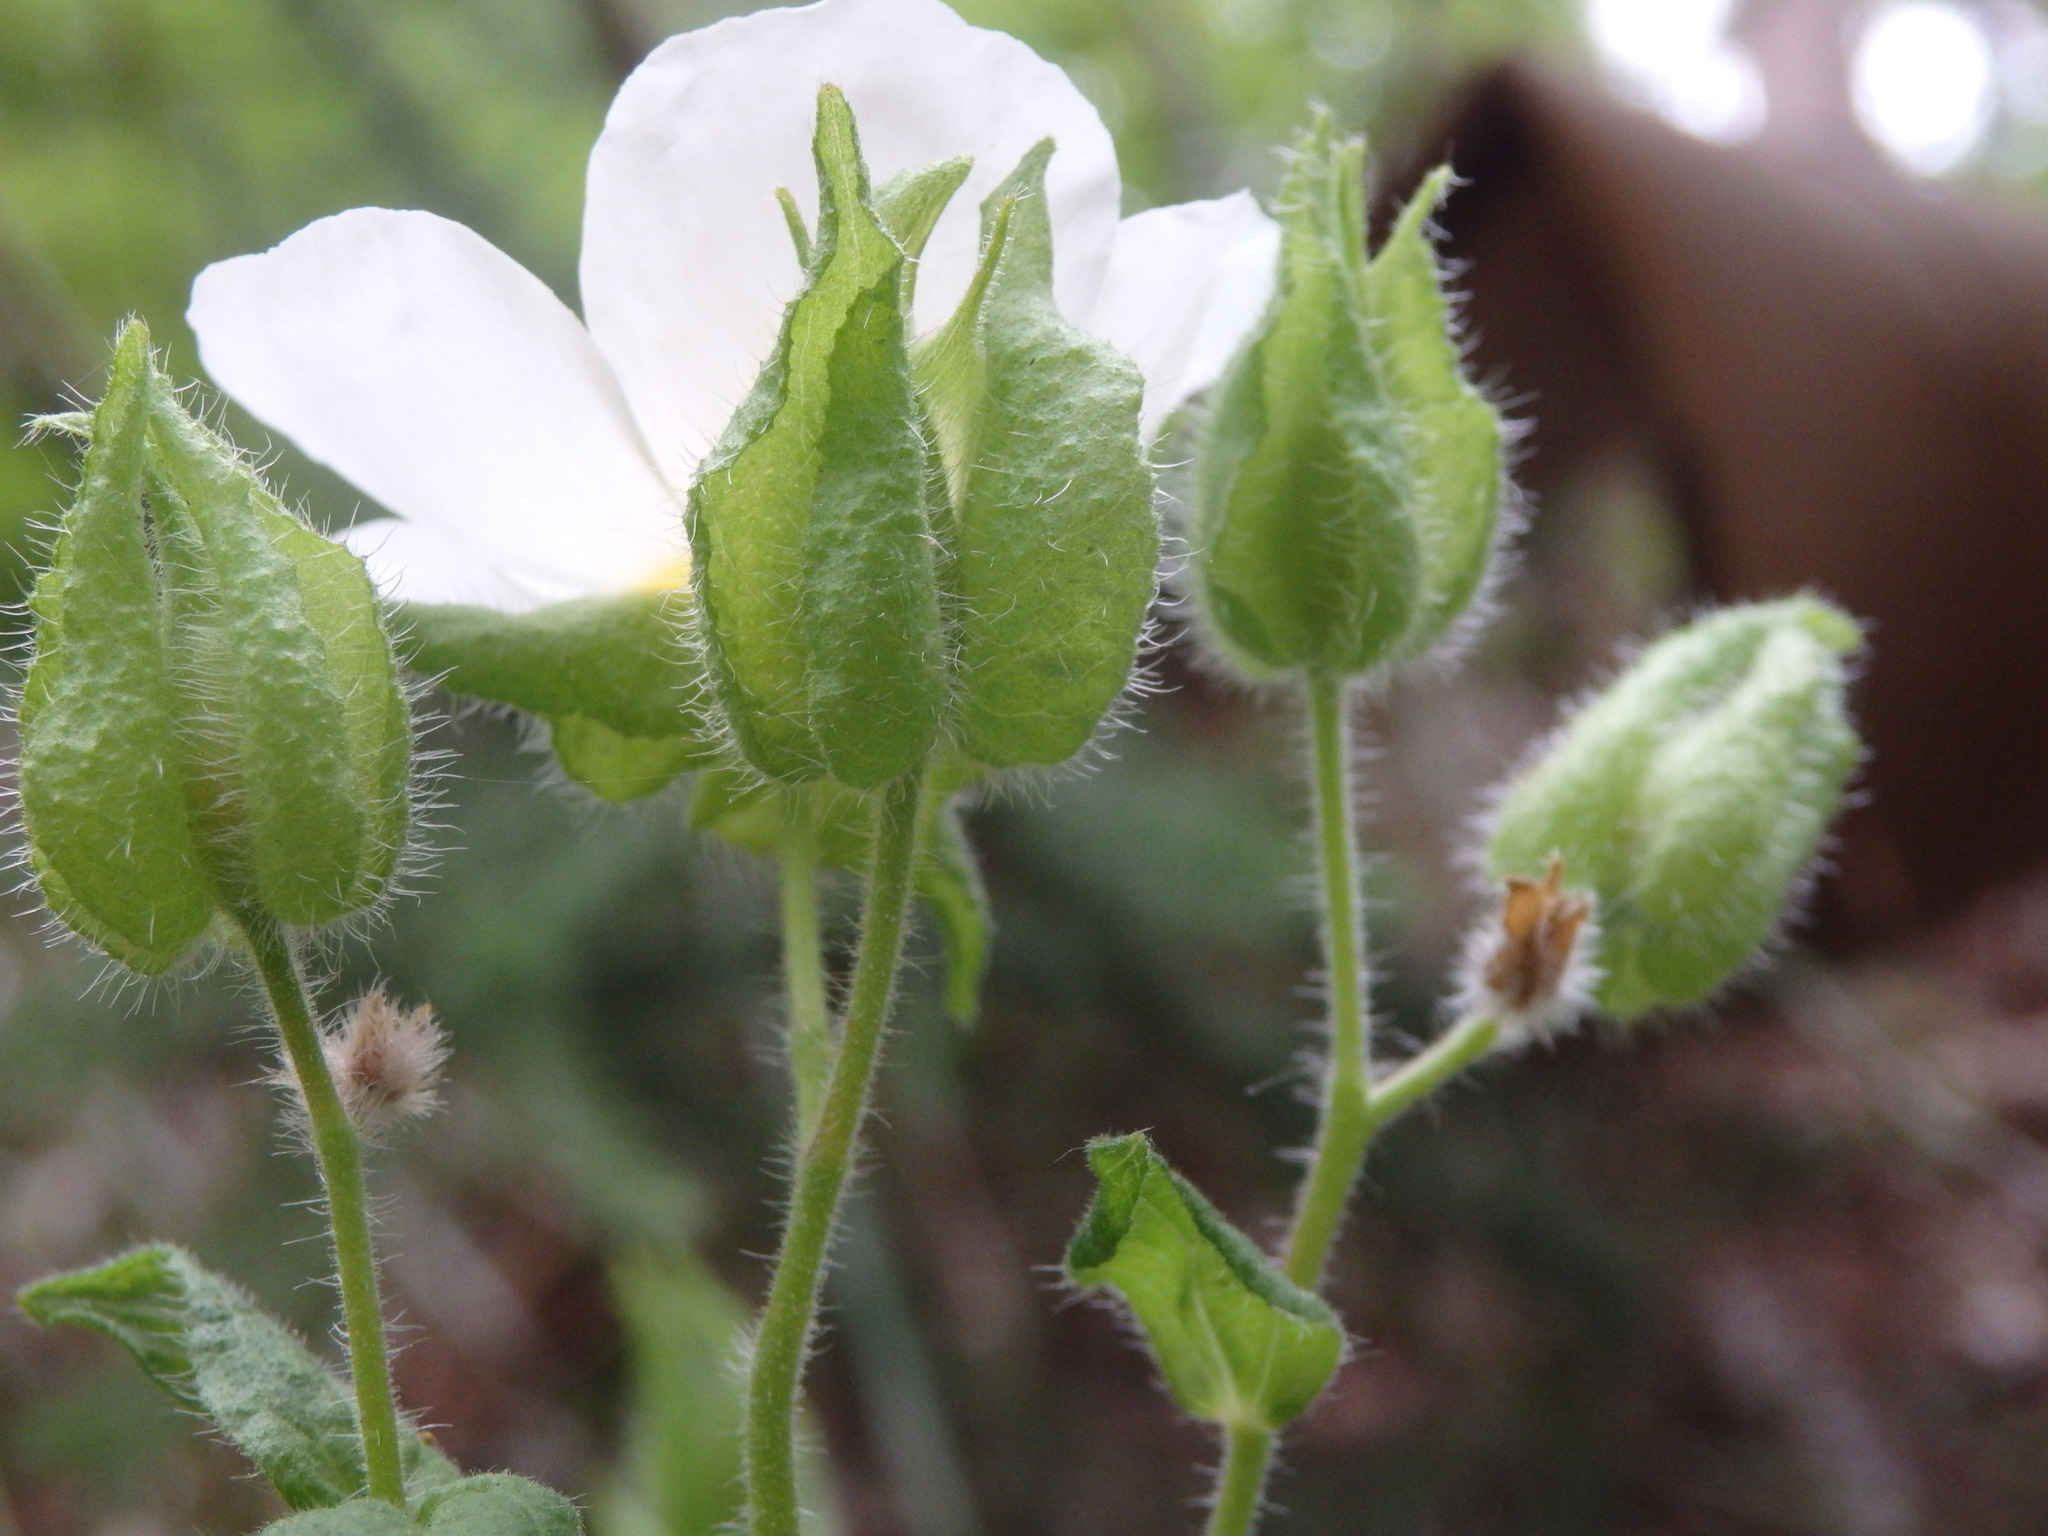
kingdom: Plantae
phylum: Tracheophyta
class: Magnoliopsida
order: Malvales
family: Cistaceae
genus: Cistus
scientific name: Cistus inflatus
